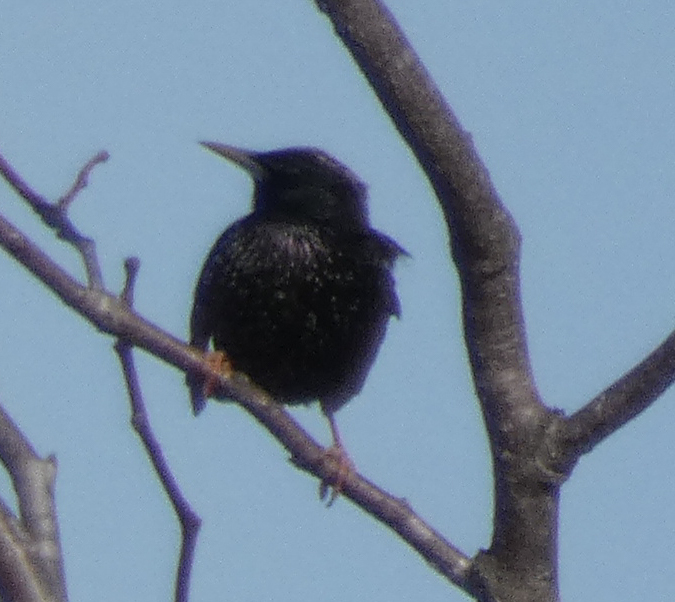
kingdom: Animalia
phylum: Chordata
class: Aves
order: Passeriformes
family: Sturnidae
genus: Sturnus
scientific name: Sturnus vulgaris
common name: Common starling
